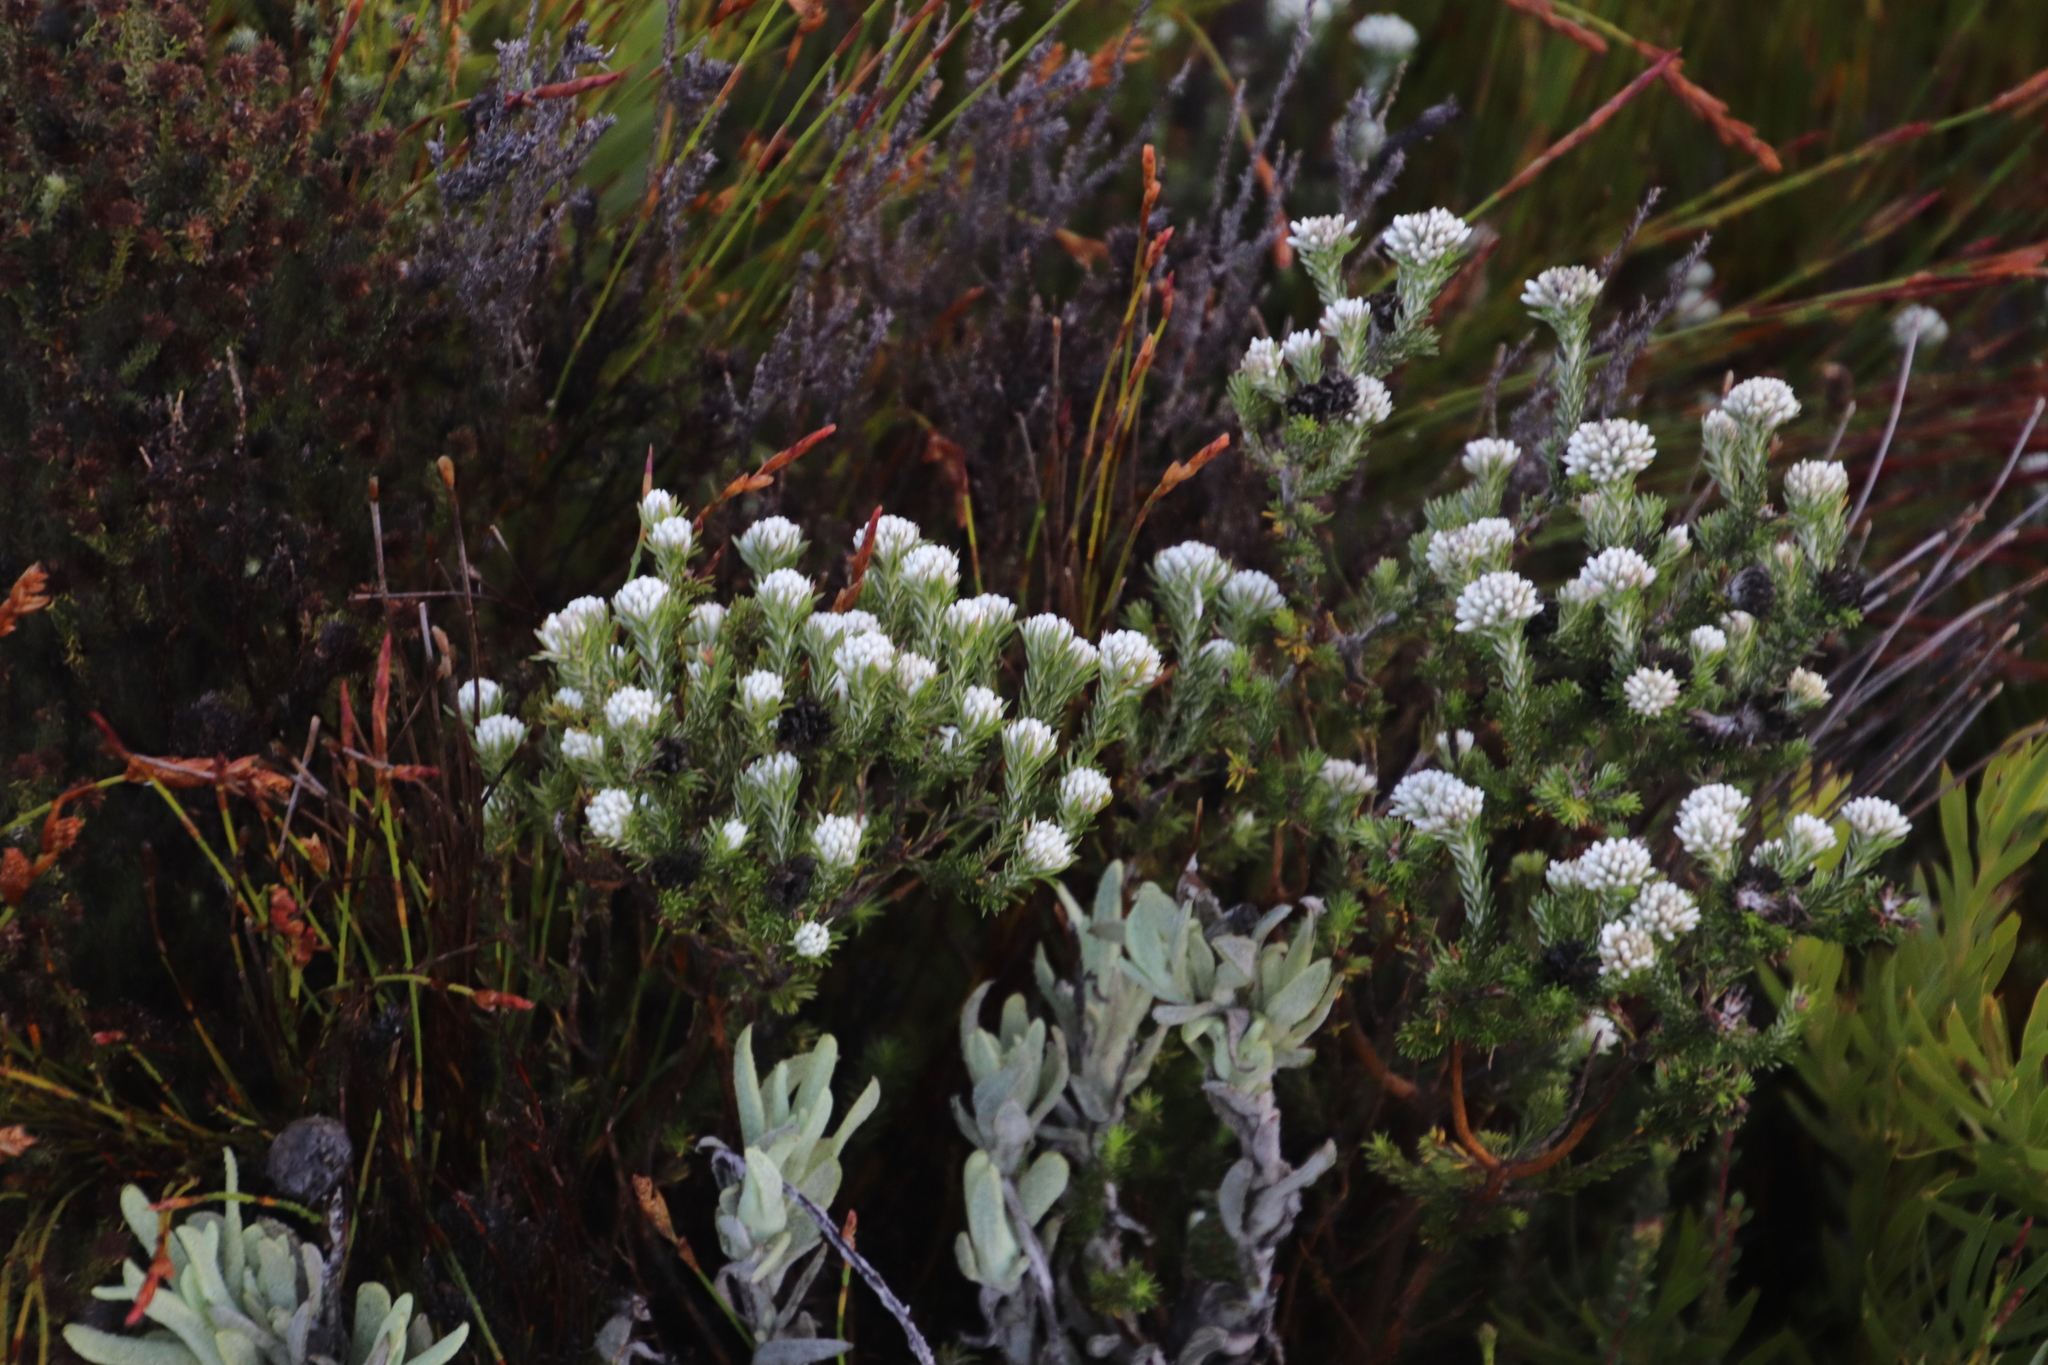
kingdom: Plantae
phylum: Tracheophyta
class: Magnoliopsida
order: Asterales
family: Asteraceae
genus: Metalasia
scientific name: Metalasia compacta
